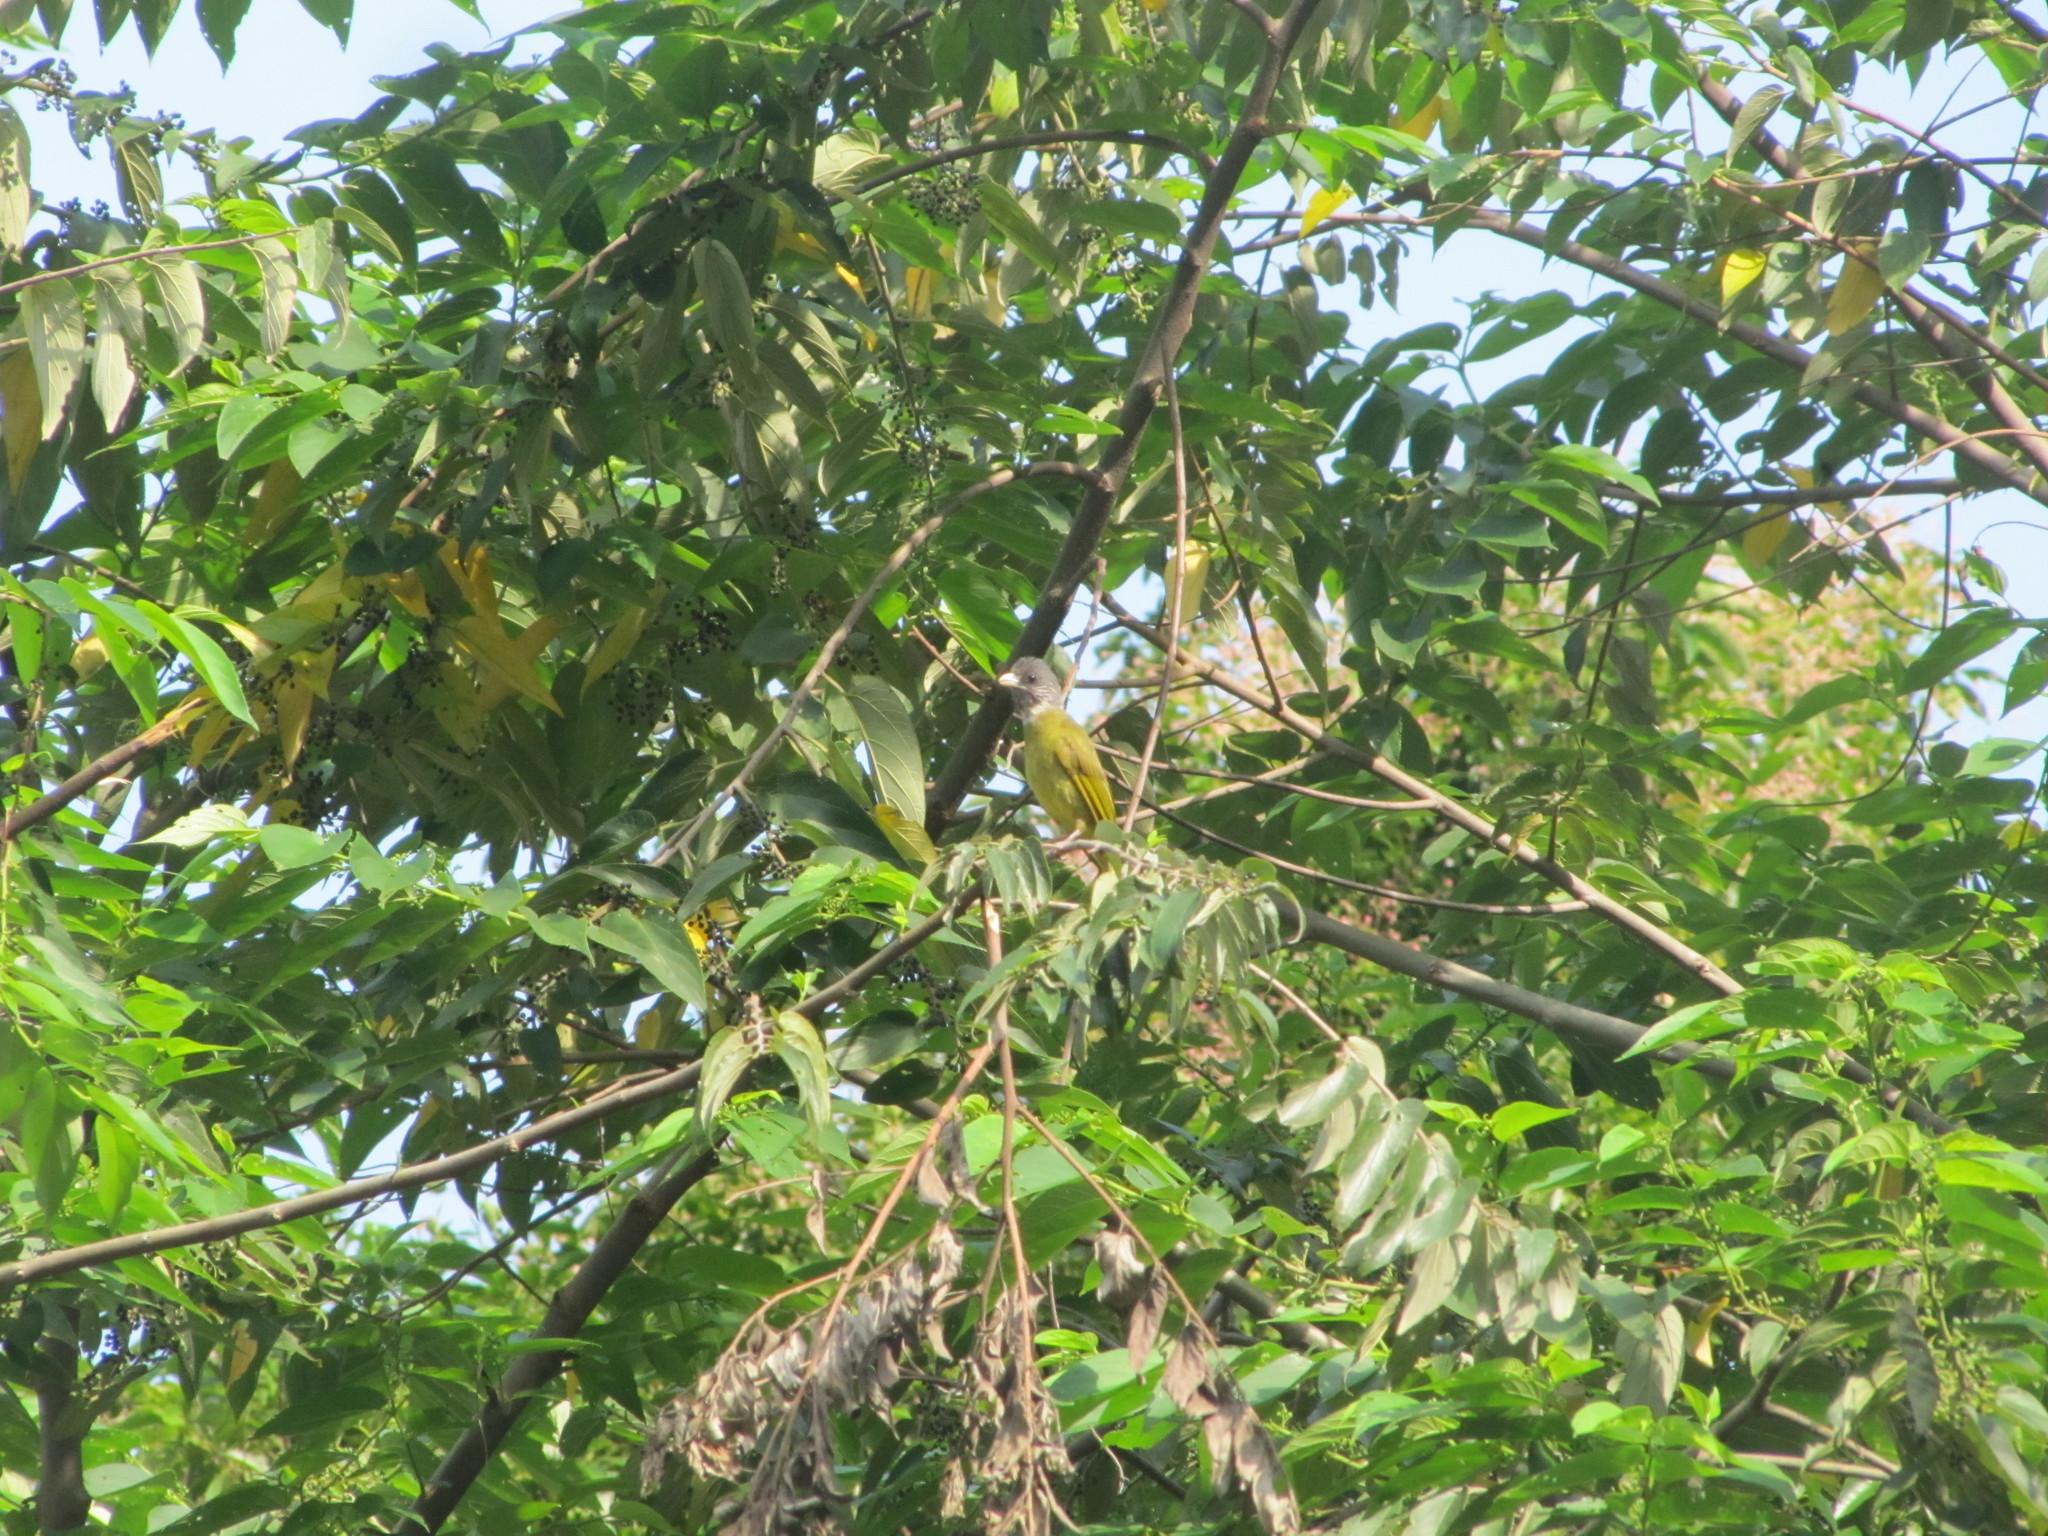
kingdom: Animalia
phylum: Chordata
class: Aves
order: Passeriformes
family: Pycnonotidae
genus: Spizixos
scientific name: Spizixos semitorques
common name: Collared finchbill
